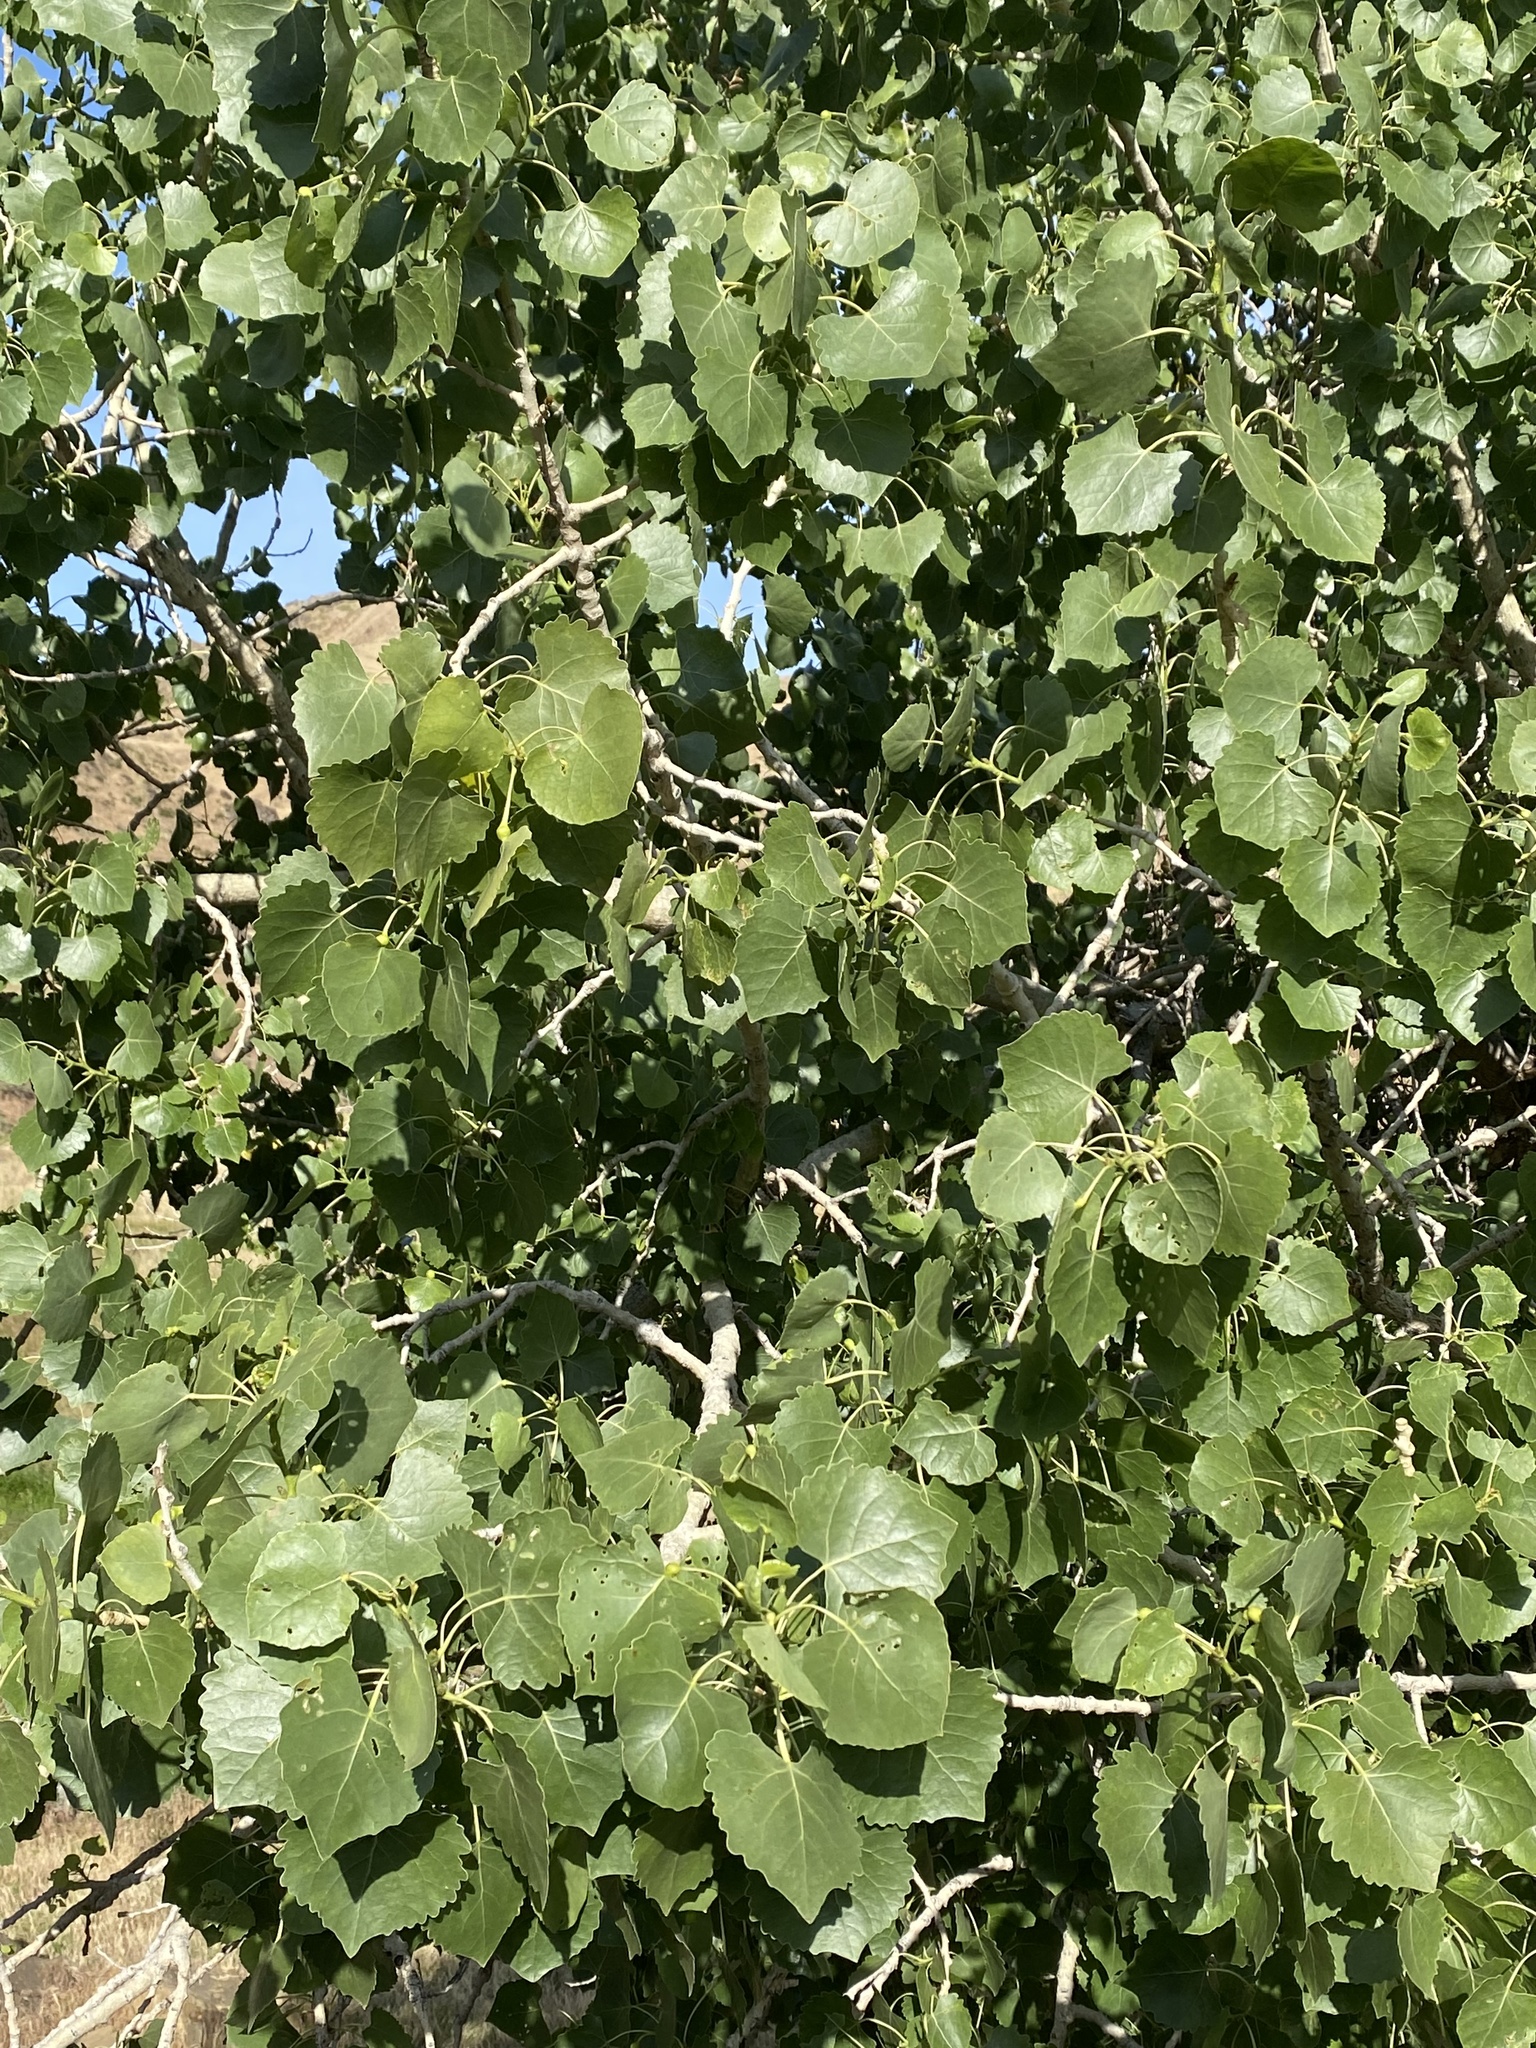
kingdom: Plantae
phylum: Tracheophyta
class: Magnoliopsida
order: Malpighiales
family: Salicaceae
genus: Populus
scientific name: Populus fremontii
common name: Fremont's cottonwood
